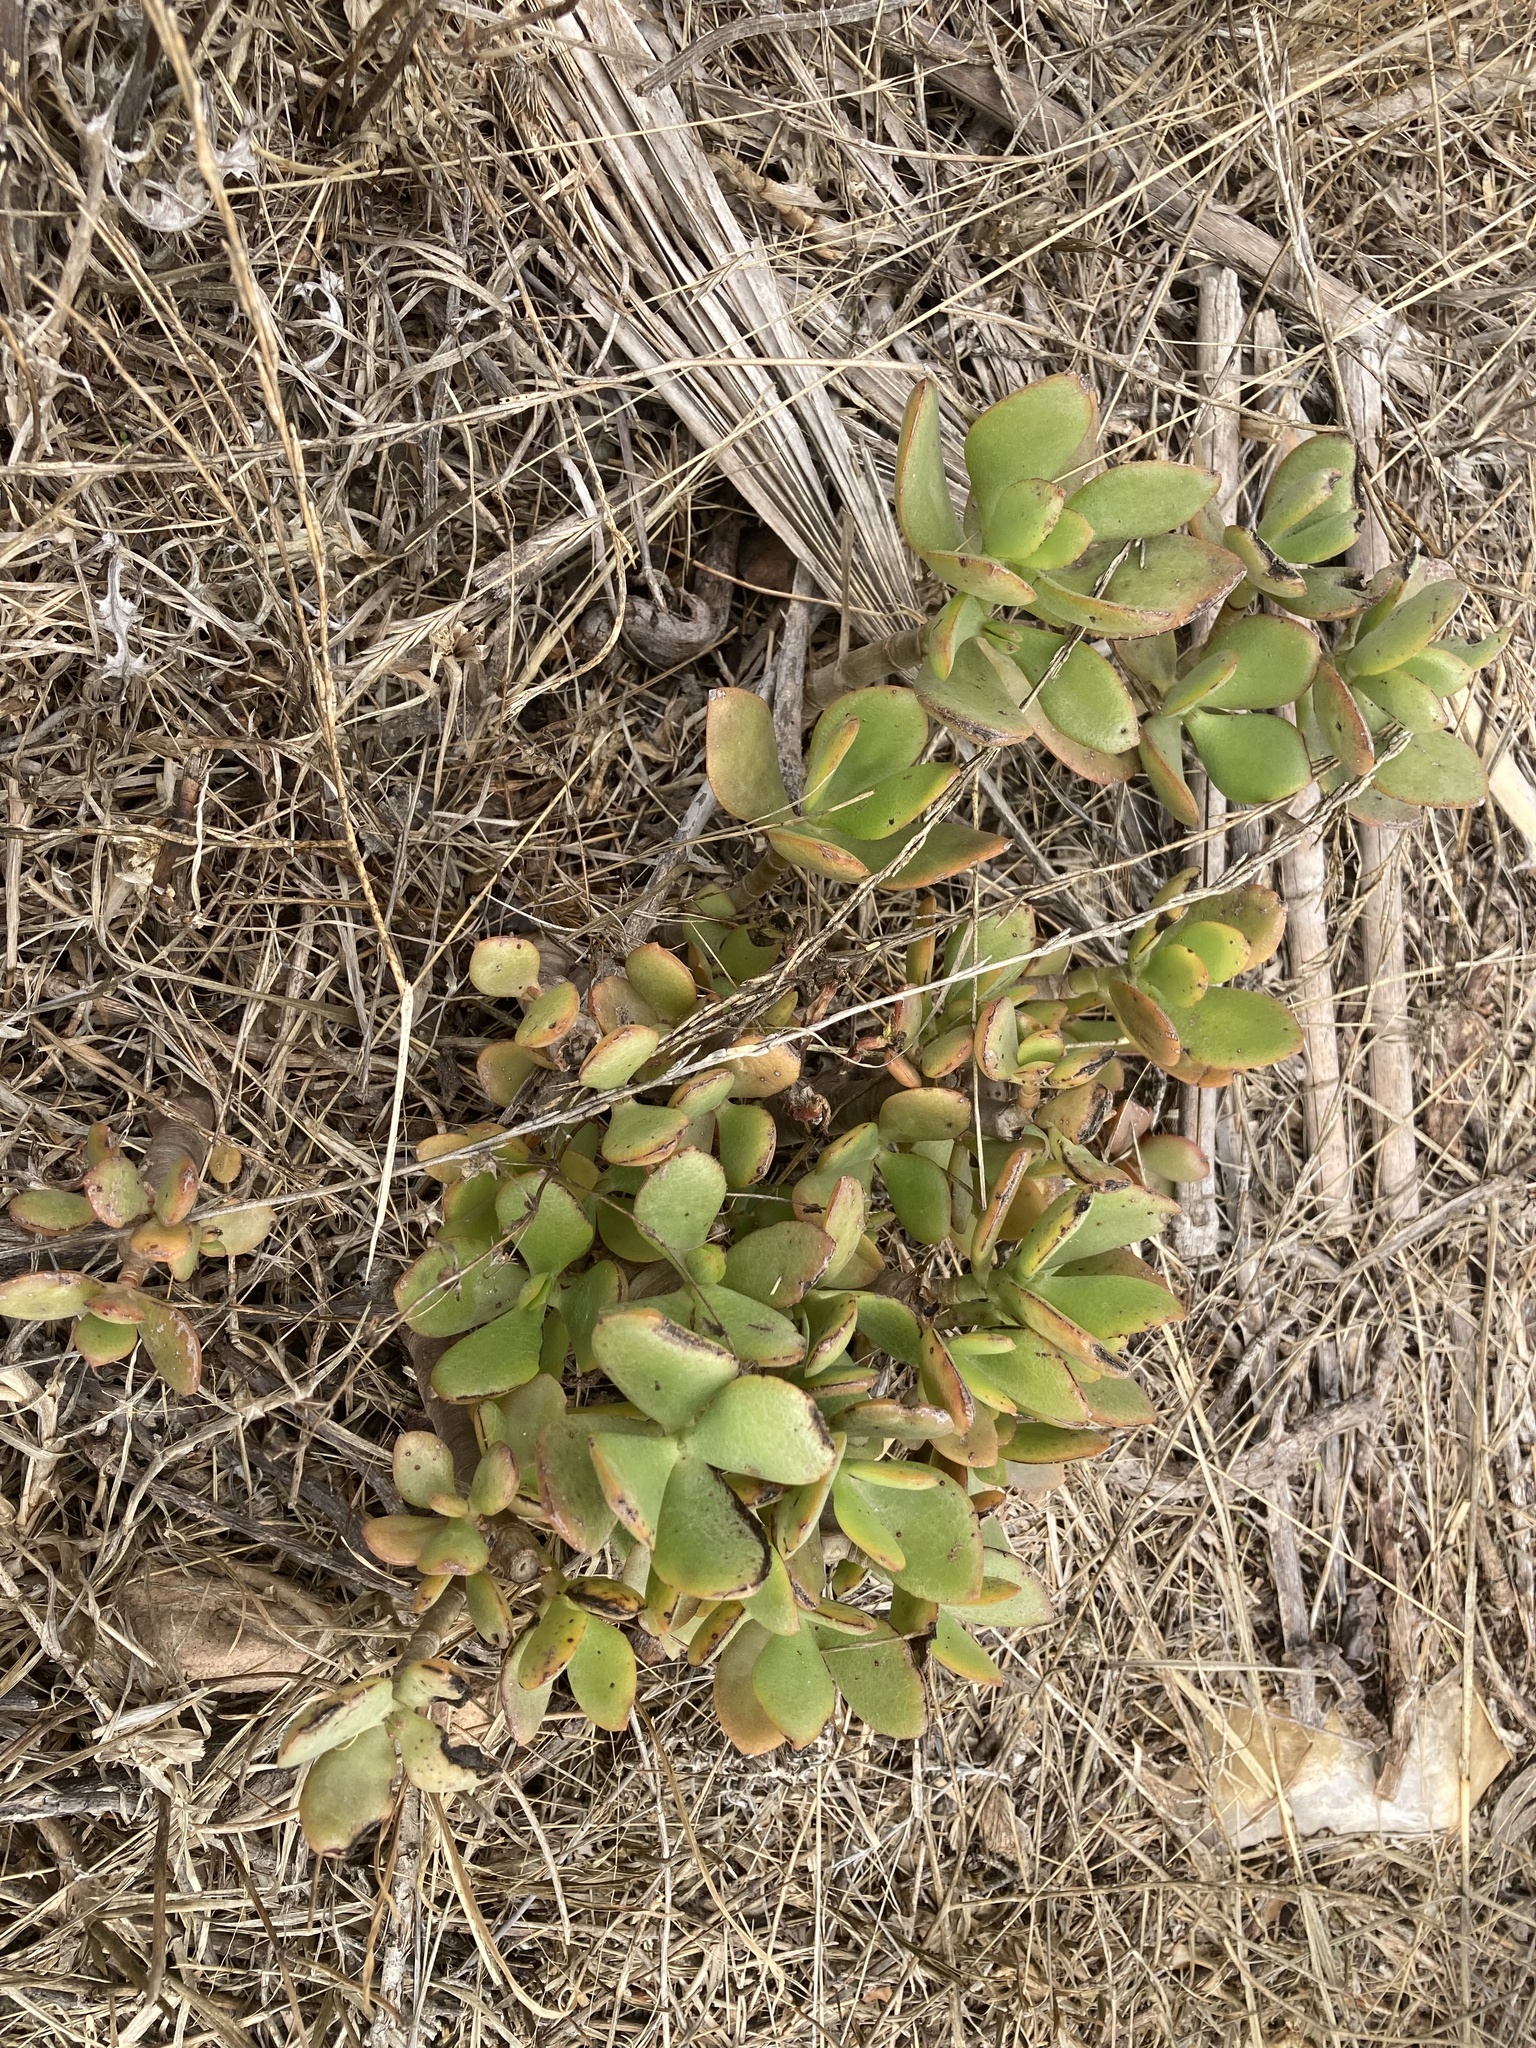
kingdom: Plantae
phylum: Tracheophyta
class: Magnoliopsida
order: Saxifragales
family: Crassulaceae
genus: Crassula
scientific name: Crassula ovata
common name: Jade plant
